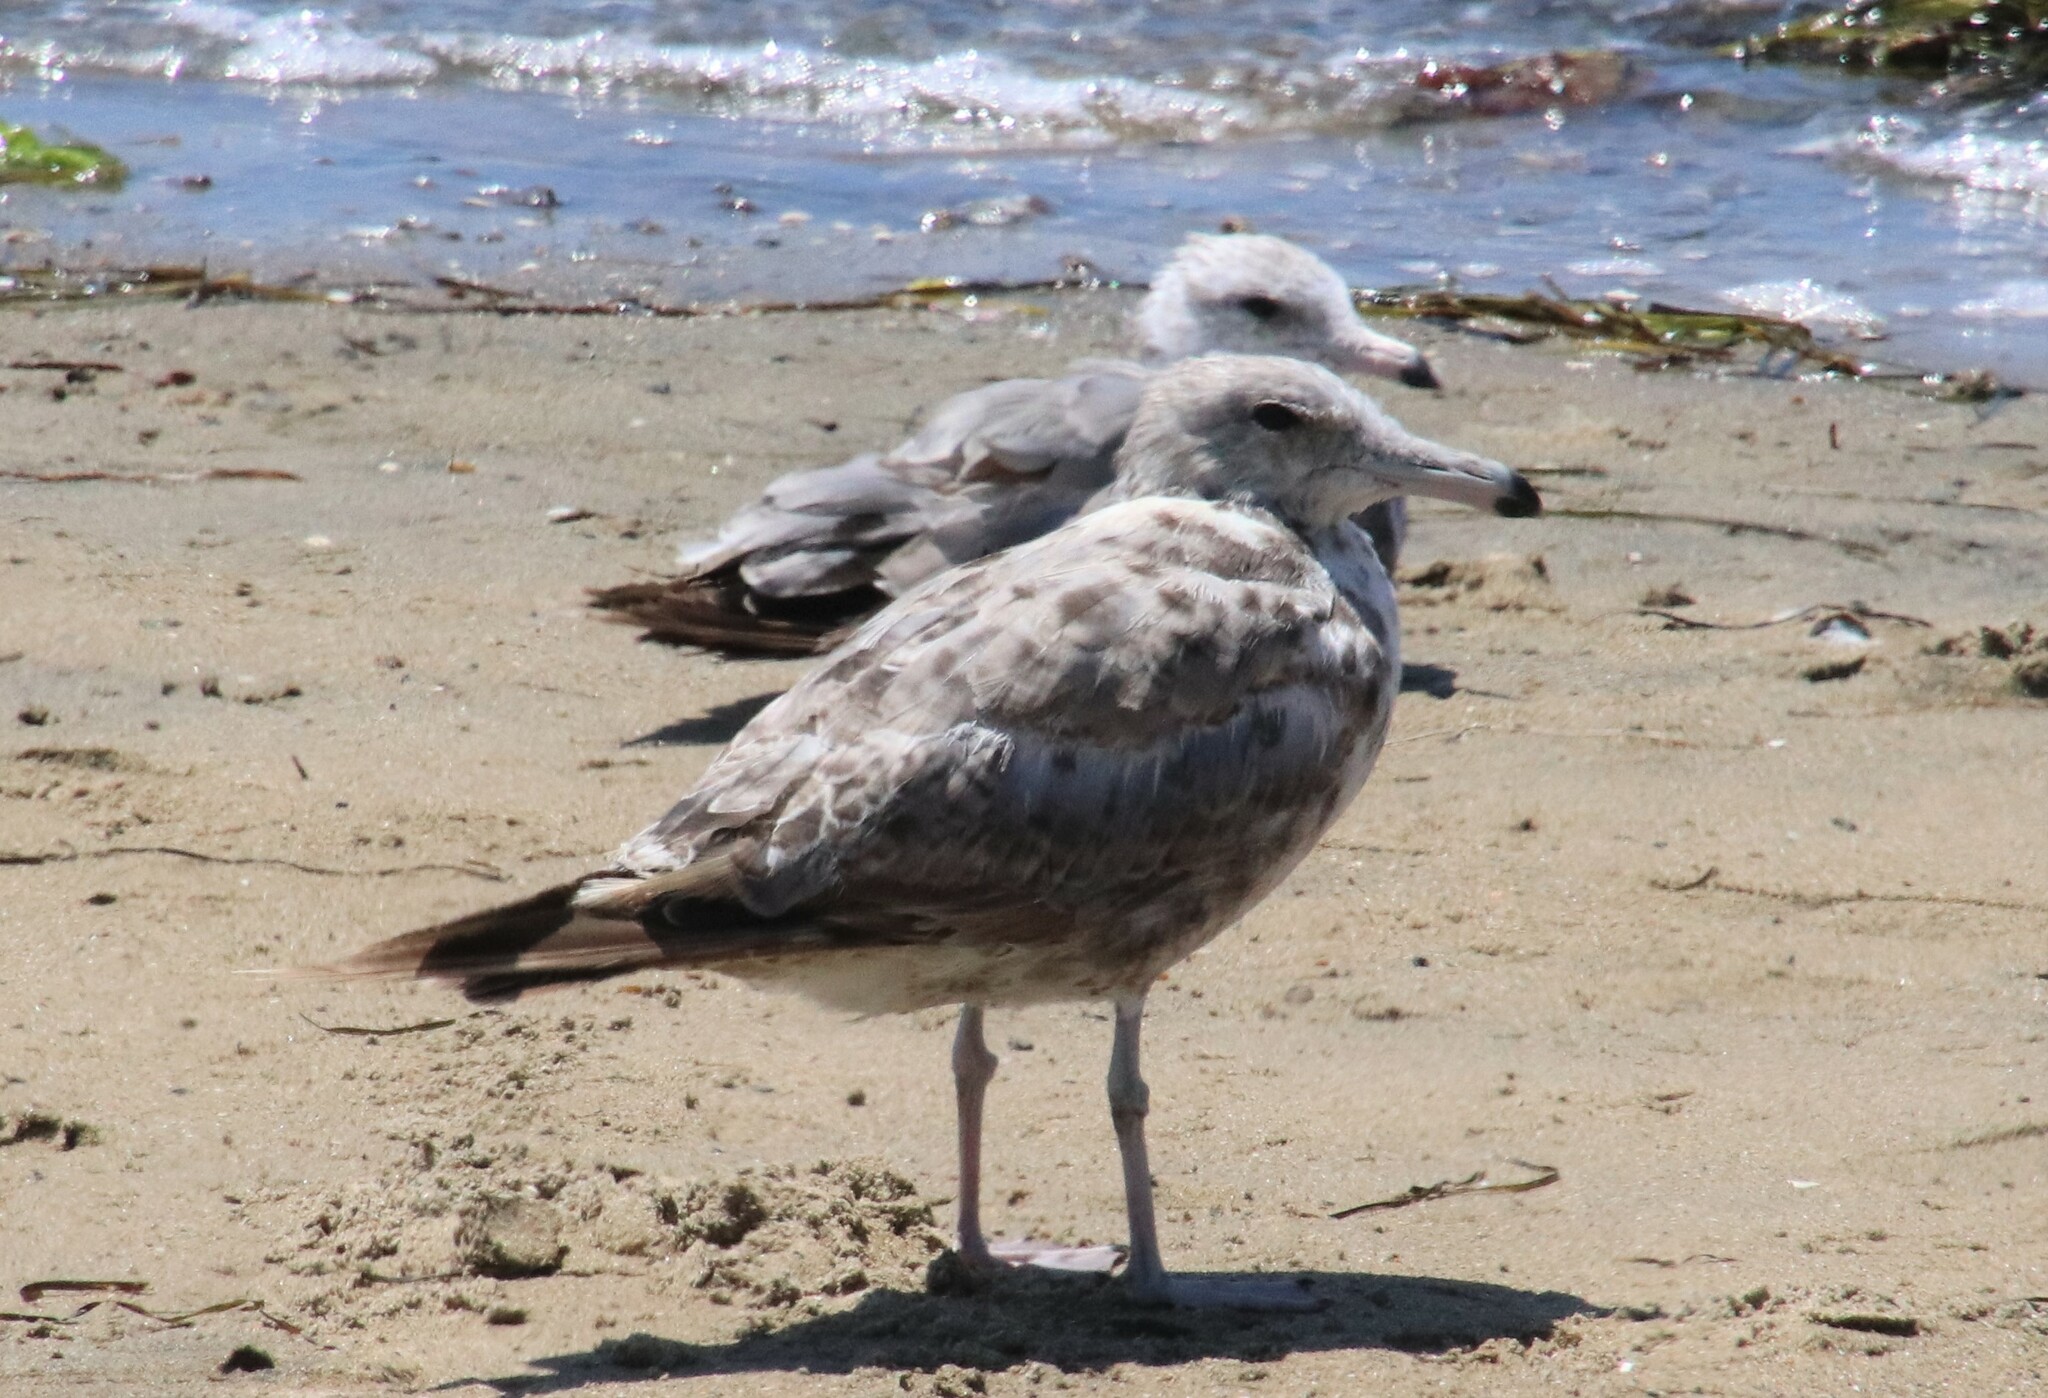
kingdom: Animalia
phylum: Chordata
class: Aves
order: Charadriiformes
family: Laridae
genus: Larus
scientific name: Larus californicus
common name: California gull
